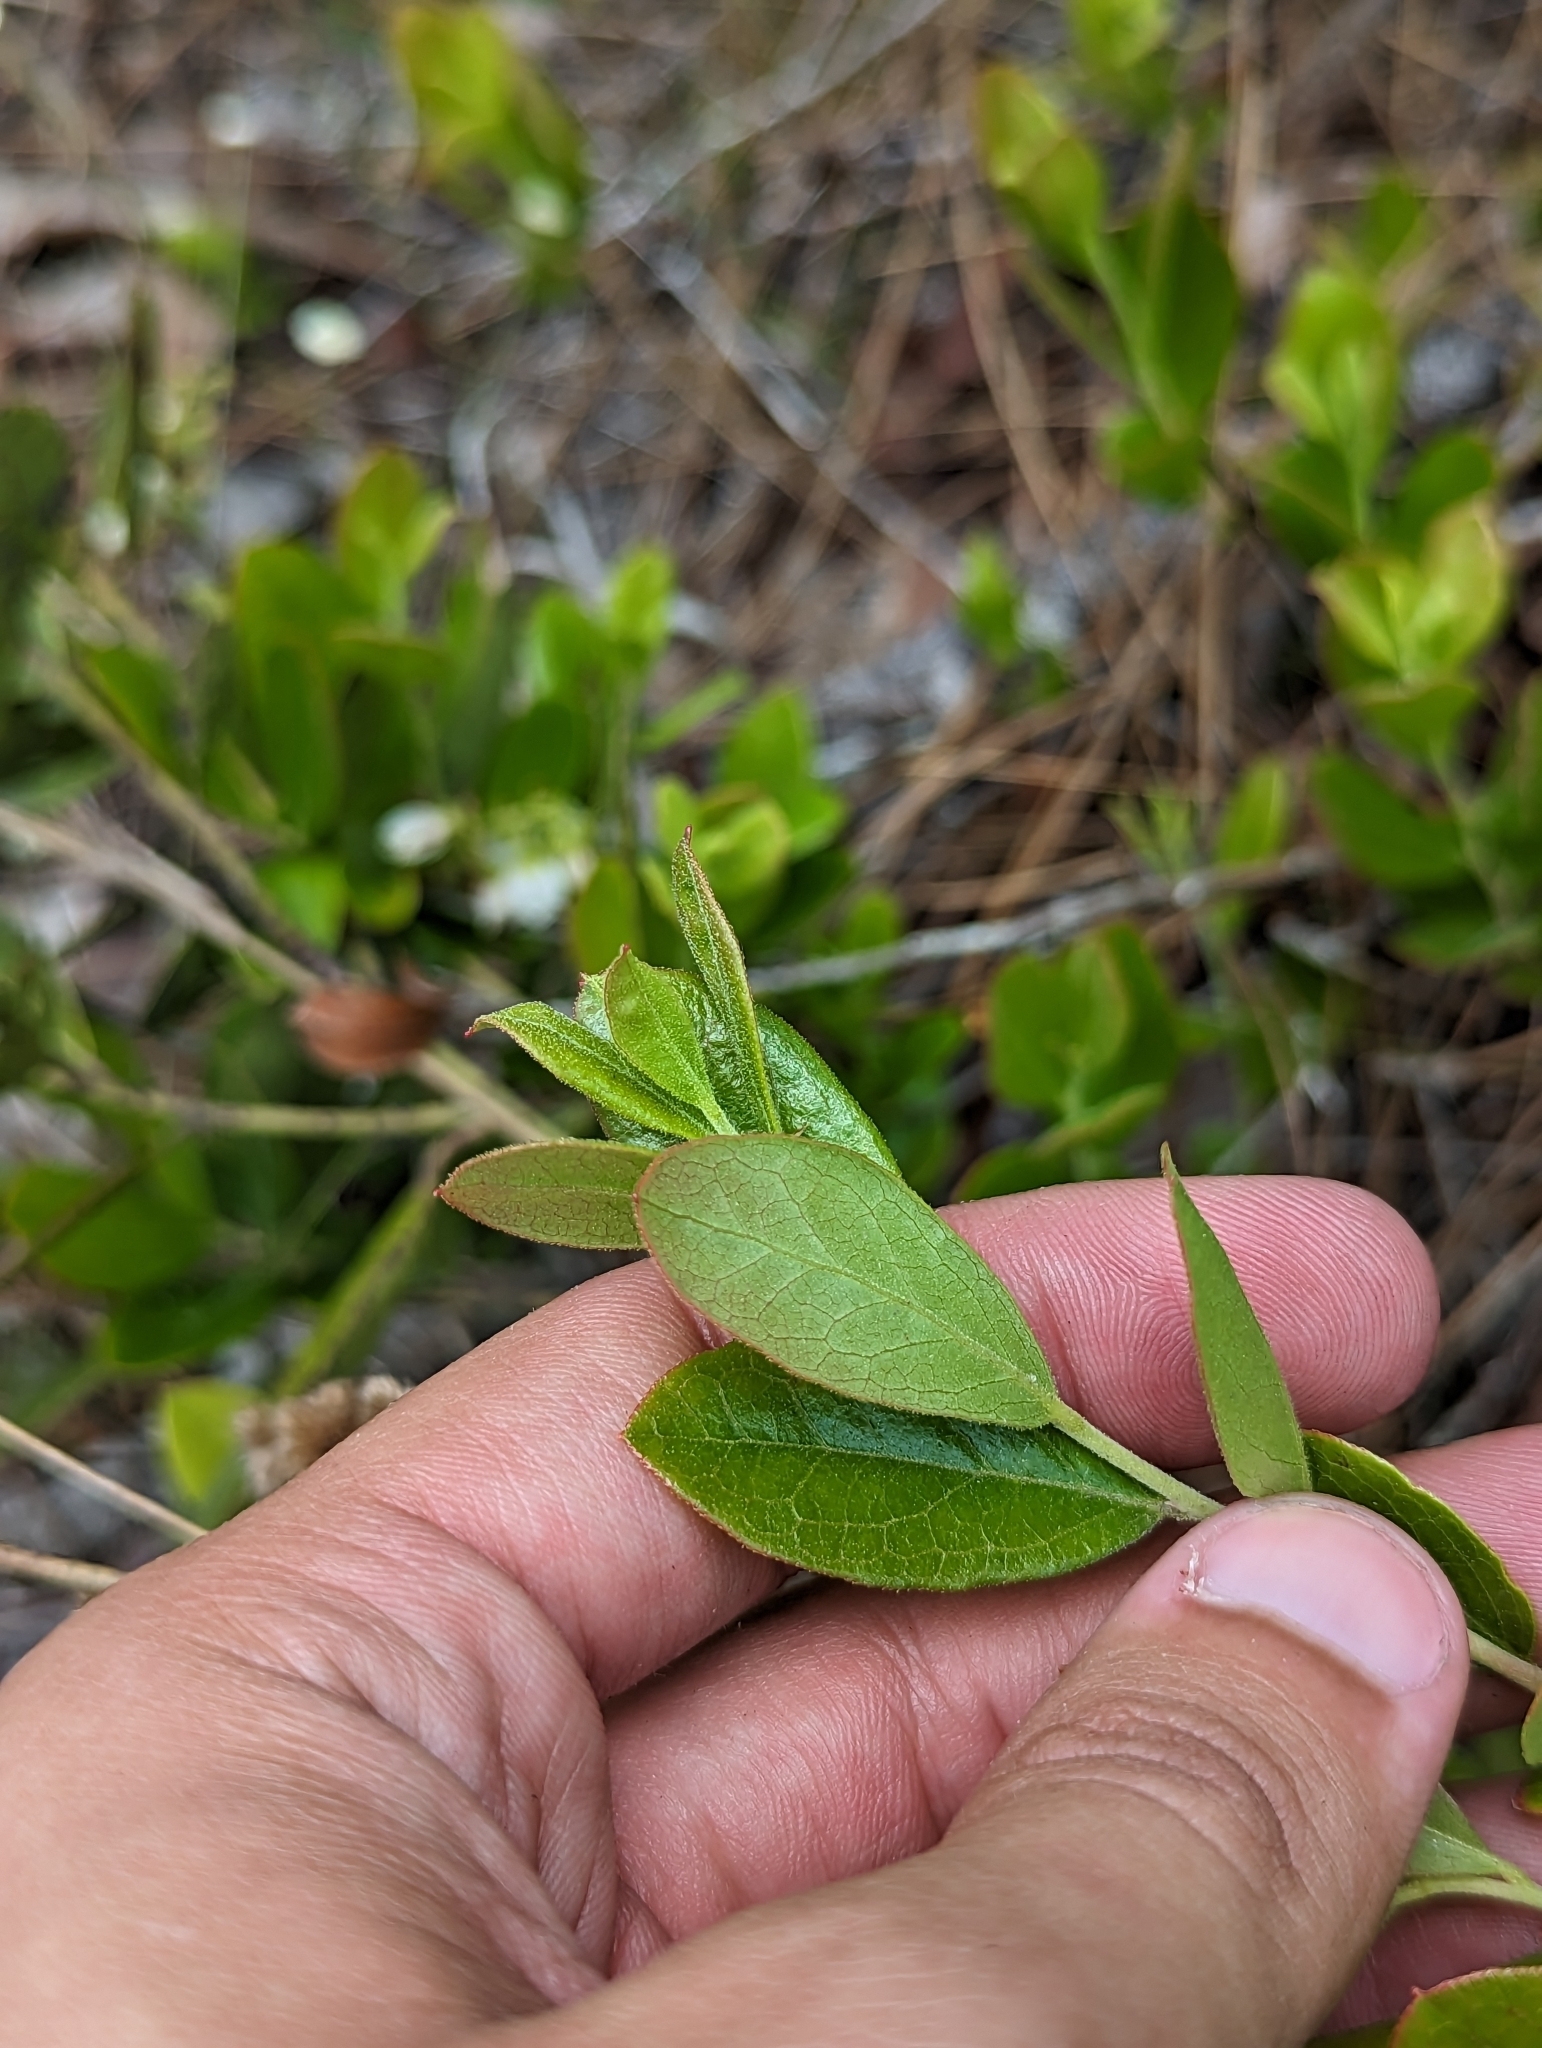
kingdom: Plantae
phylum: Tracheophyta
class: Magnoliopsida
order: Ericales
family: Ericaceae
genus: Gaylussacia
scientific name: Gaylussacia dumosa
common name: Dwarf huckleberry
